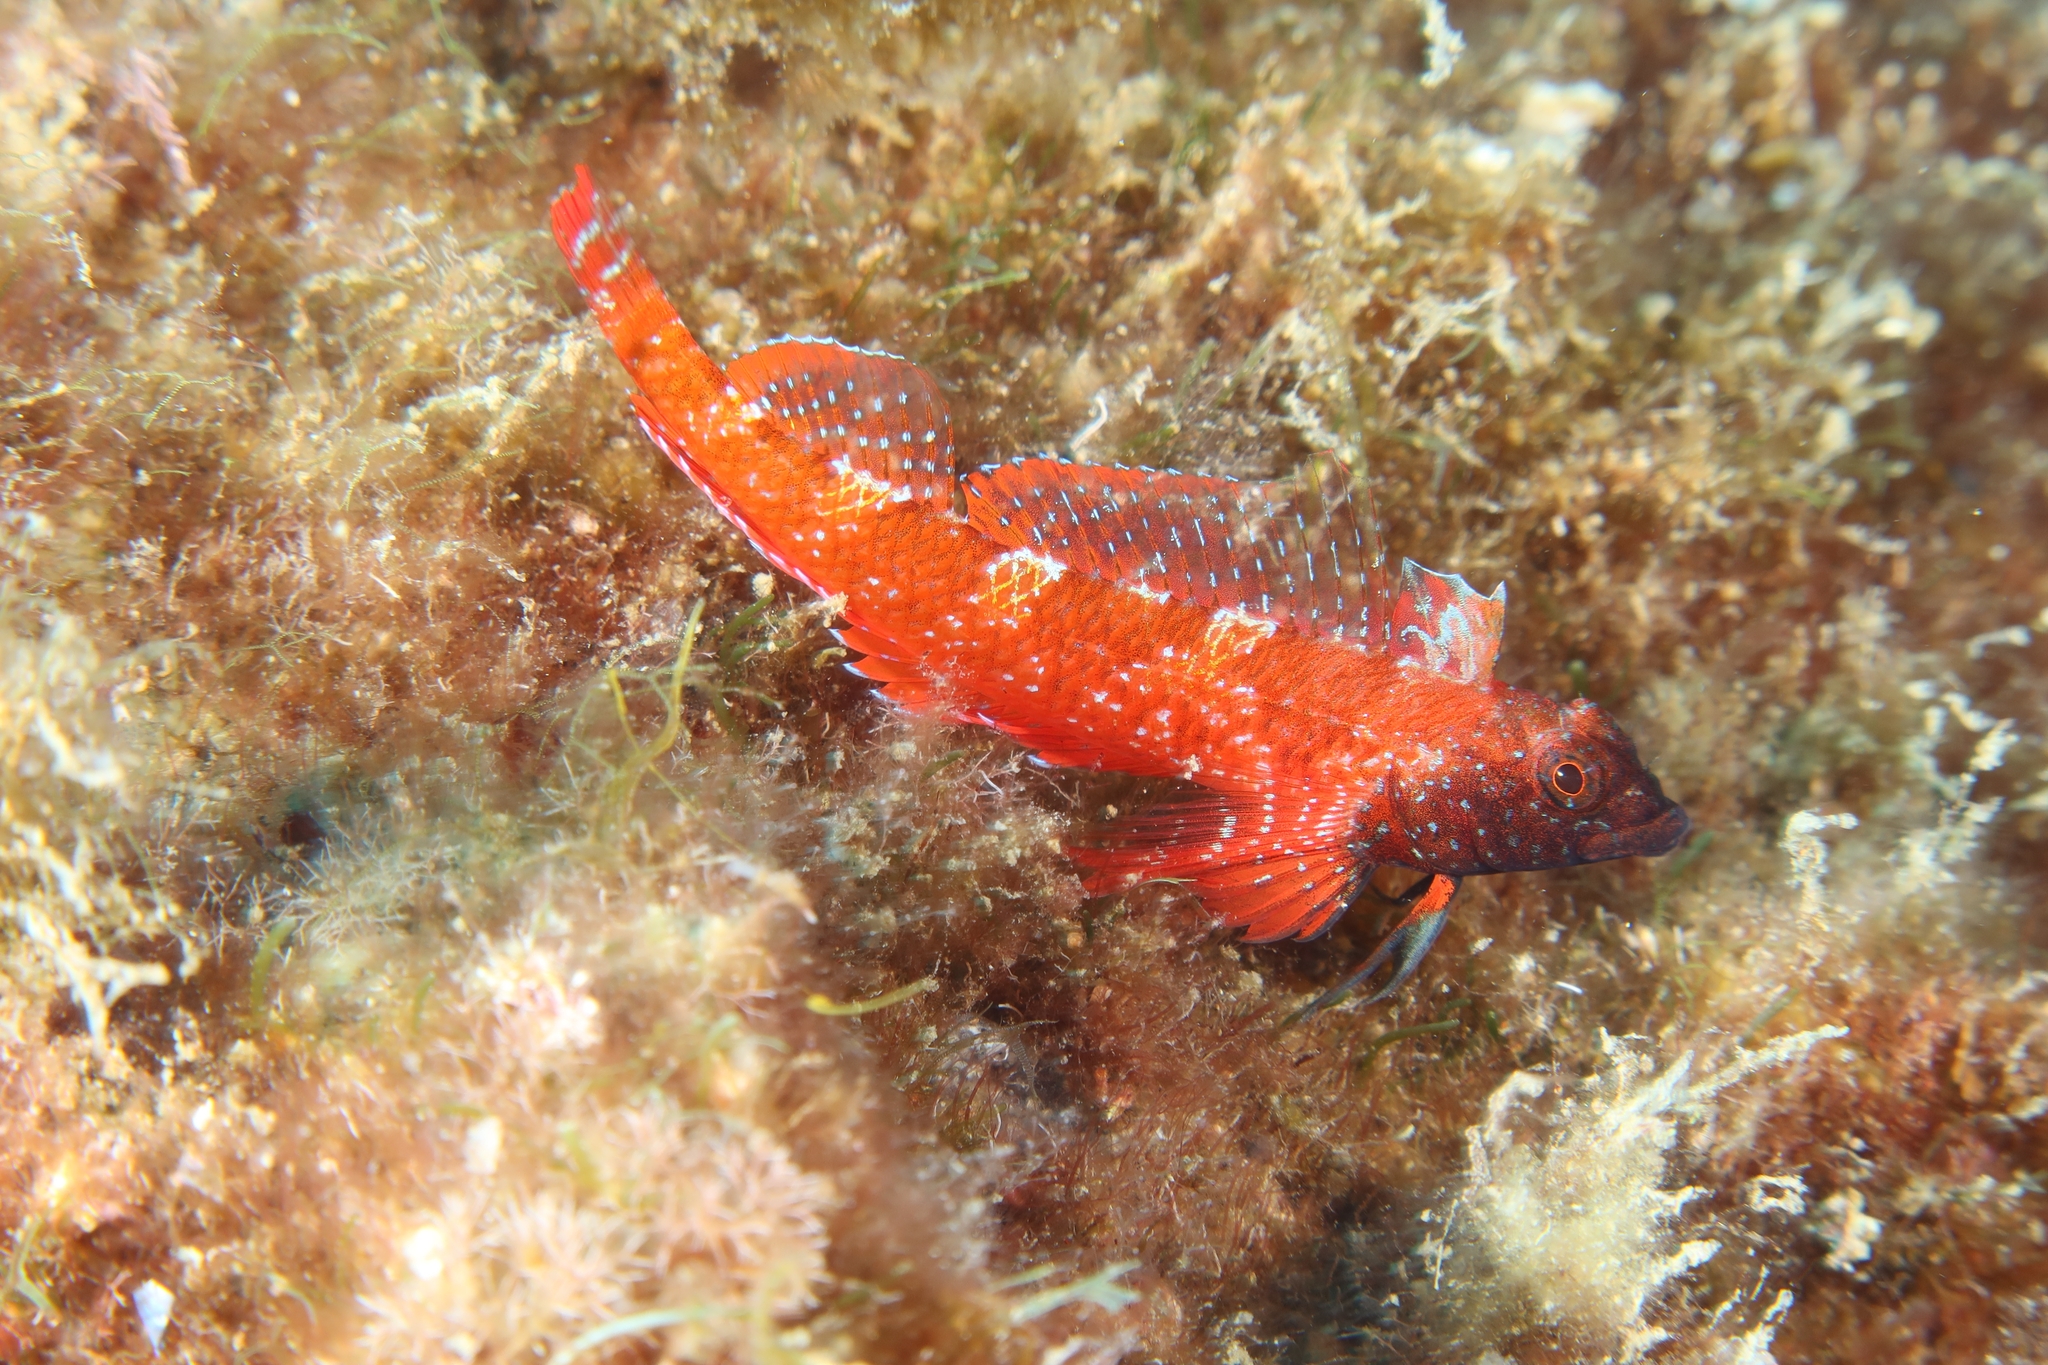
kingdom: Animalia
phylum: Chordata
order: Perciformes
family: Tripterygiidae
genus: Tripterygion
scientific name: Tripterygion tripteronotum
